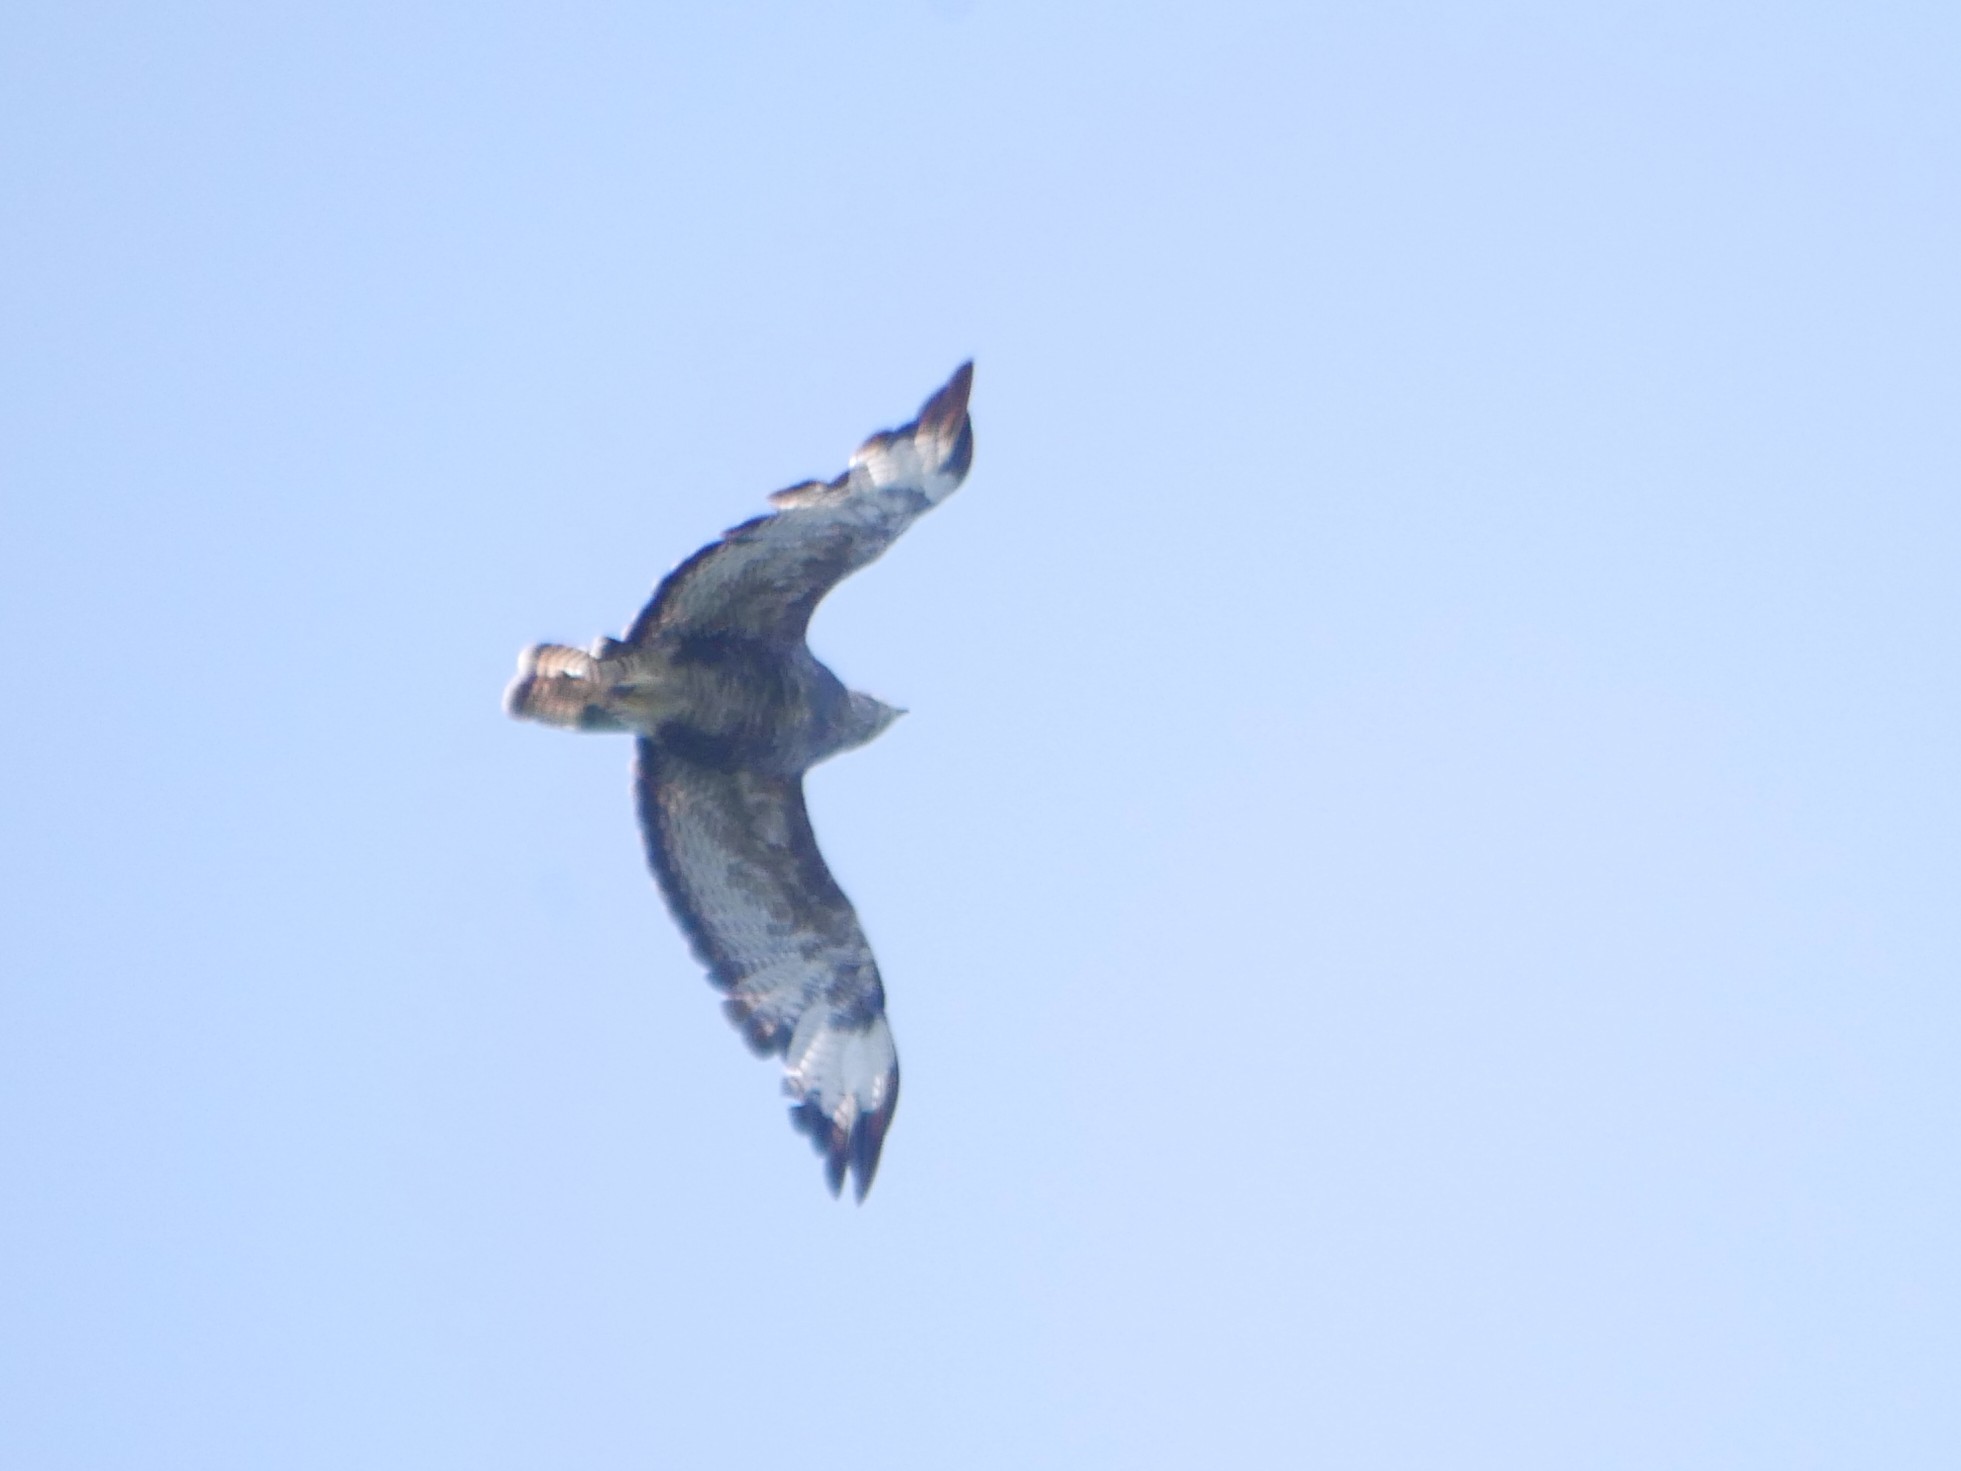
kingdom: Animalia
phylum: Chordata
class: Aves
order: Accipitriformes
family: Accipitridae
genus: Buteo
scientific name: Buteo buteo
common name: Common buzzard
